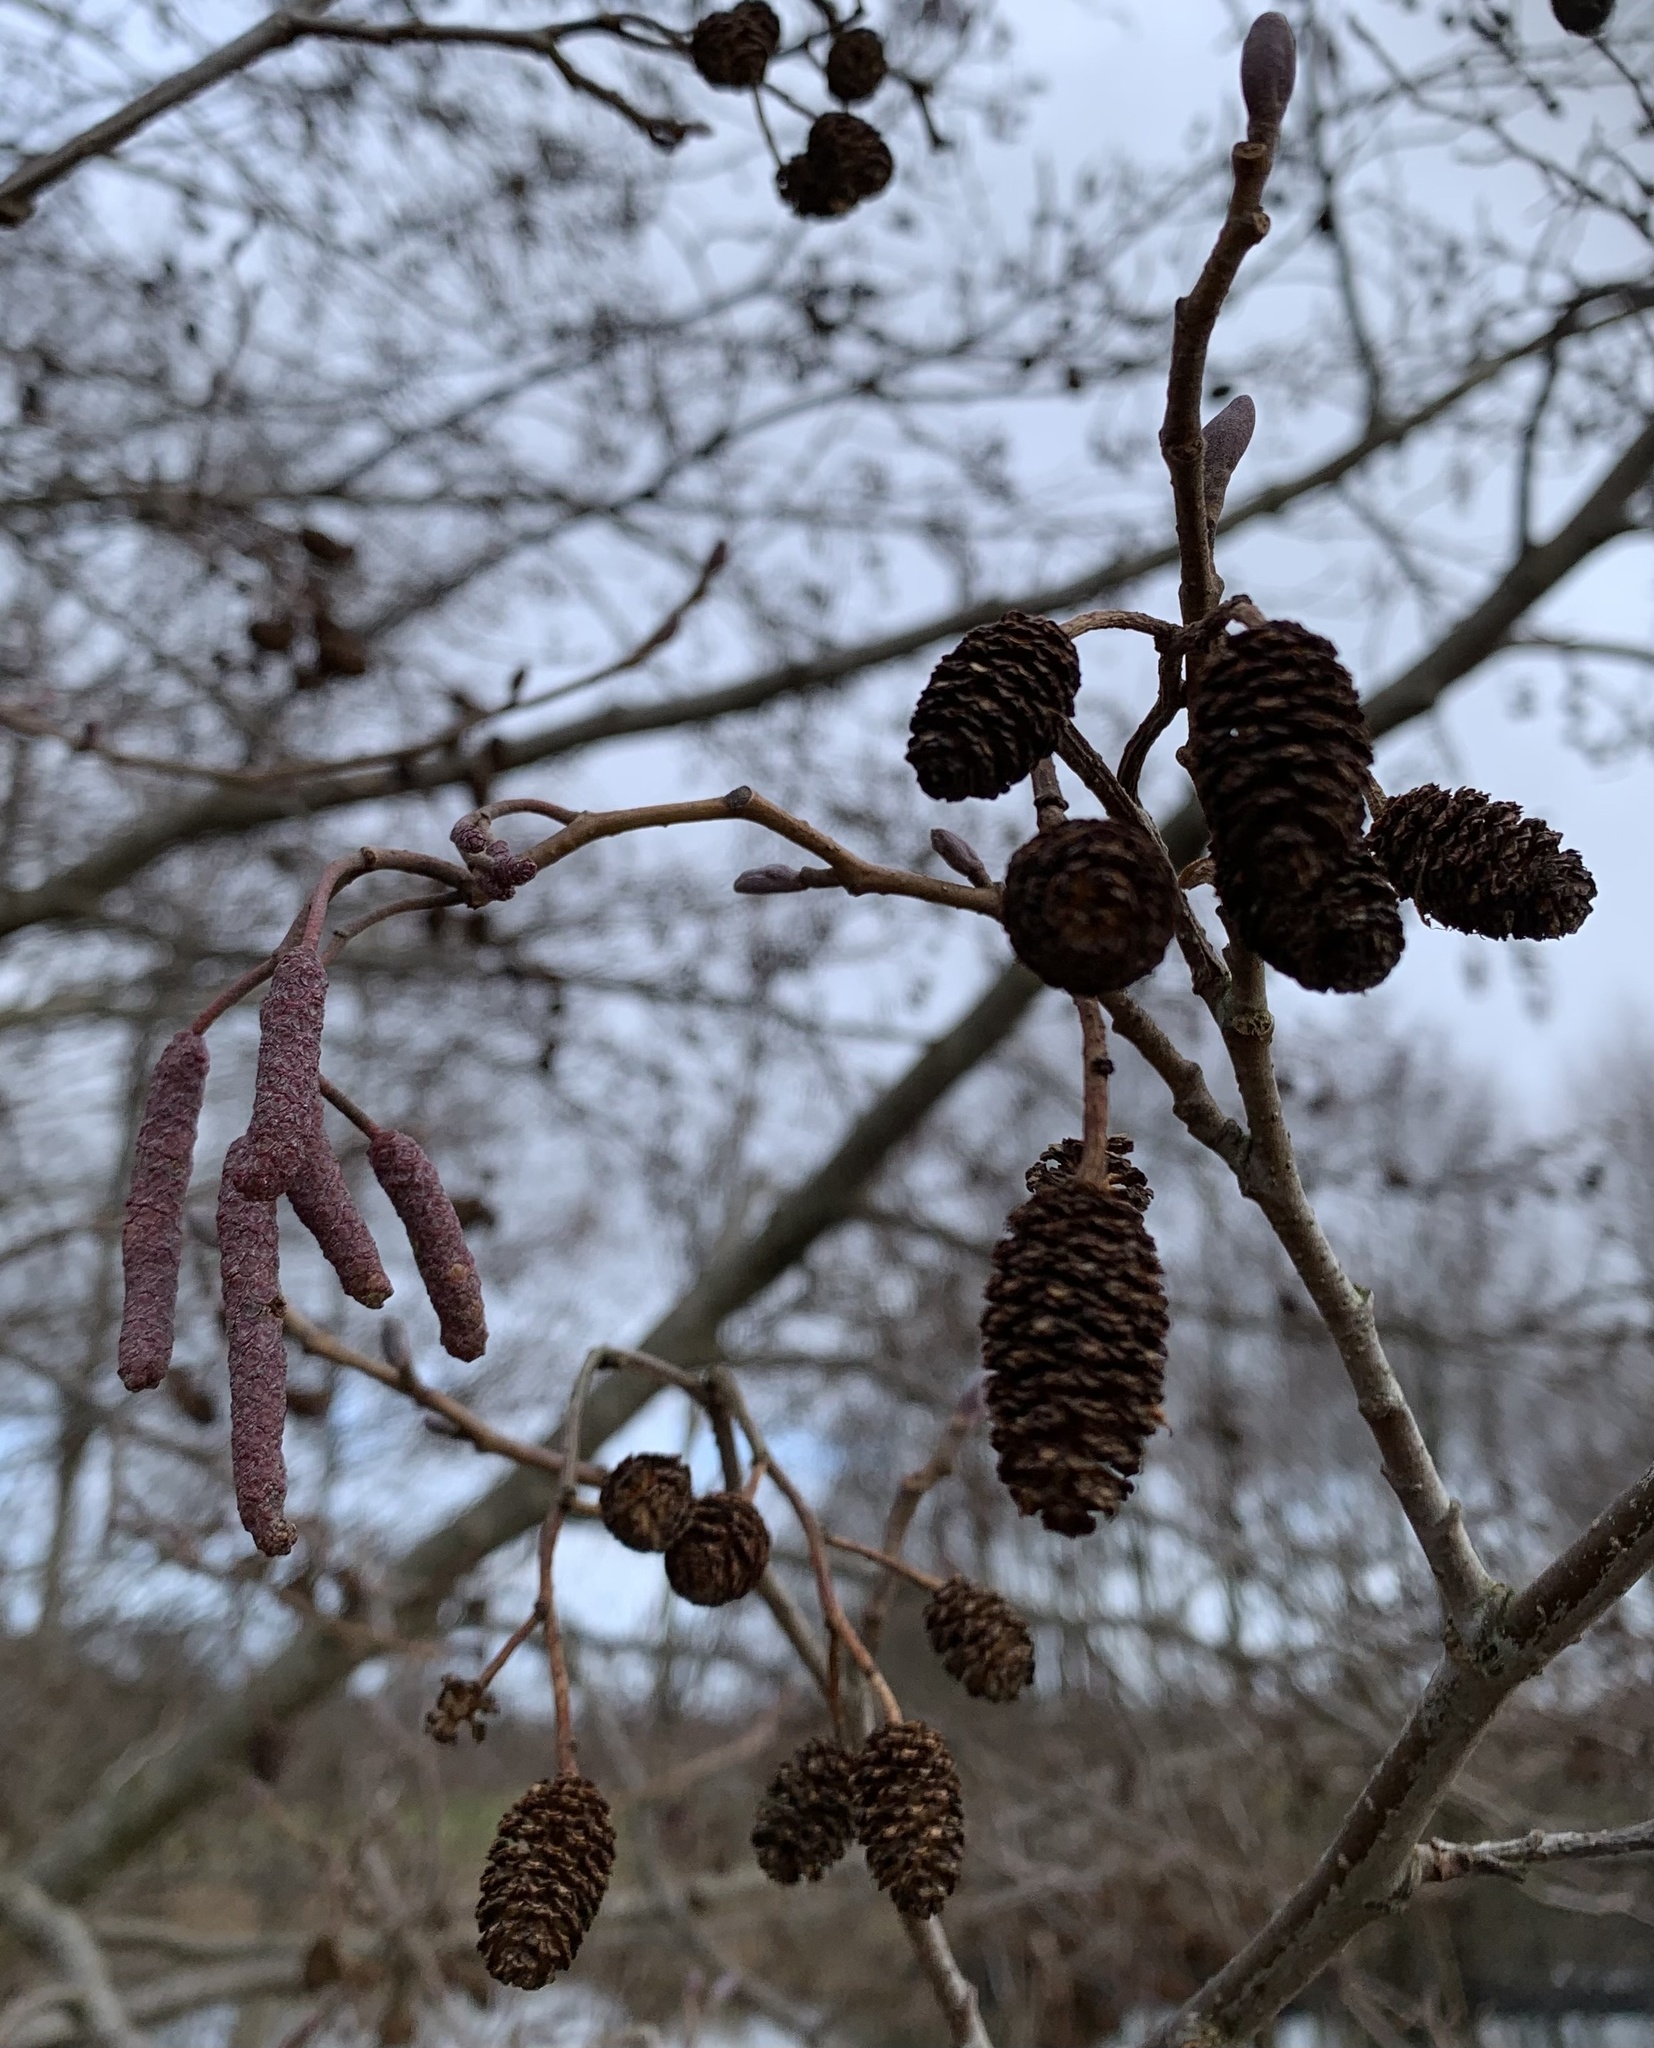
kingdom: Plantae
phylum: Tracheophyta
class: Magnoliopsida
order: Fagales
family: Betulaceae
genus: Alnus
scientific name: Alnus glutinosa
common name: Black alder
